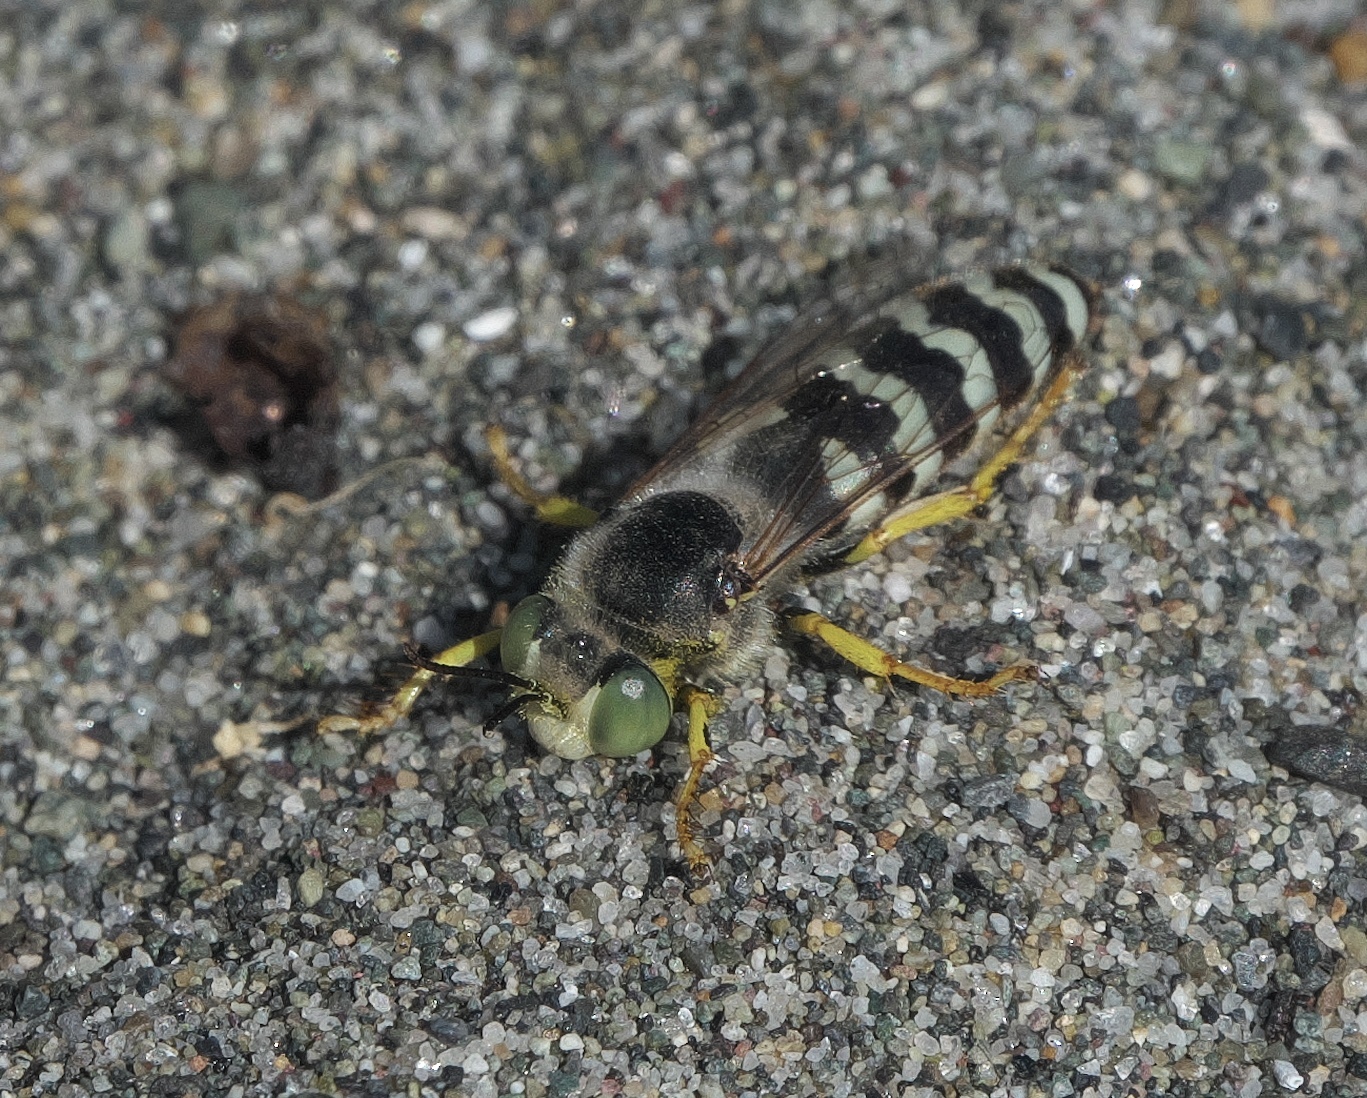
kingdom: Animalia
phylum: Arthropoda
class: Insecta
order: Hymenoptera
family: Crabronidae
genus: Bembix
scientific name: Bembix americana
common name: American sand wasp
